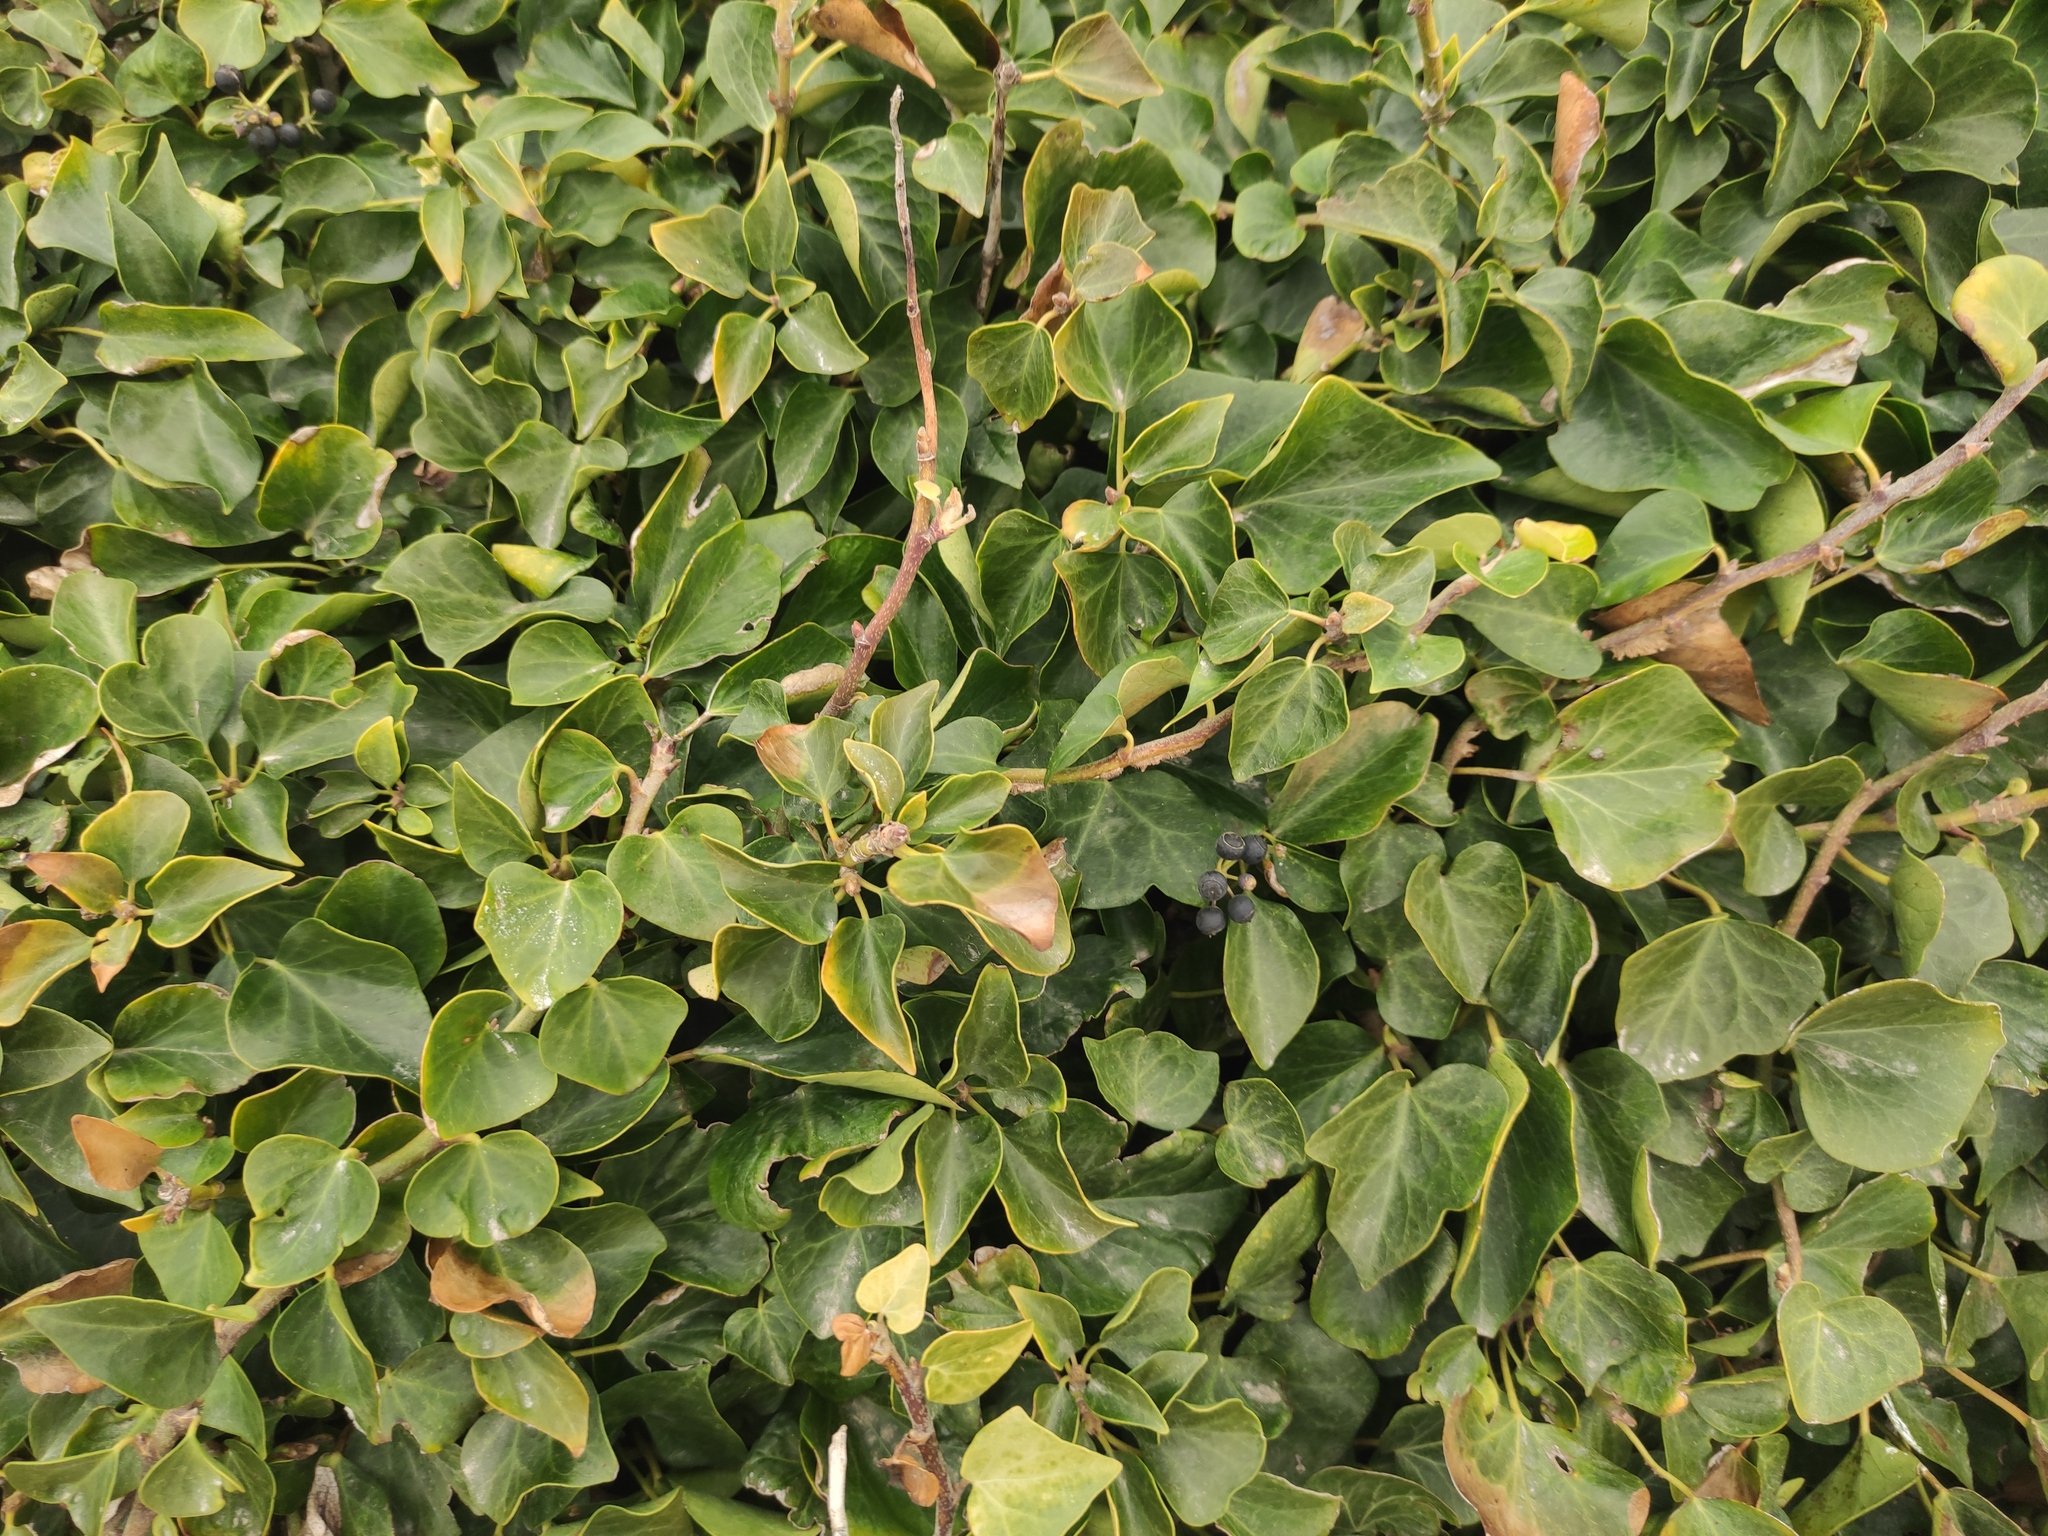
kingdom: Plantae
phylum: Tracheophyta
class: Magnoliopsida
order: Apiales
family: Araliaceae
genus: Hedera
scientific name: Hedera helix
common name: Ivy
